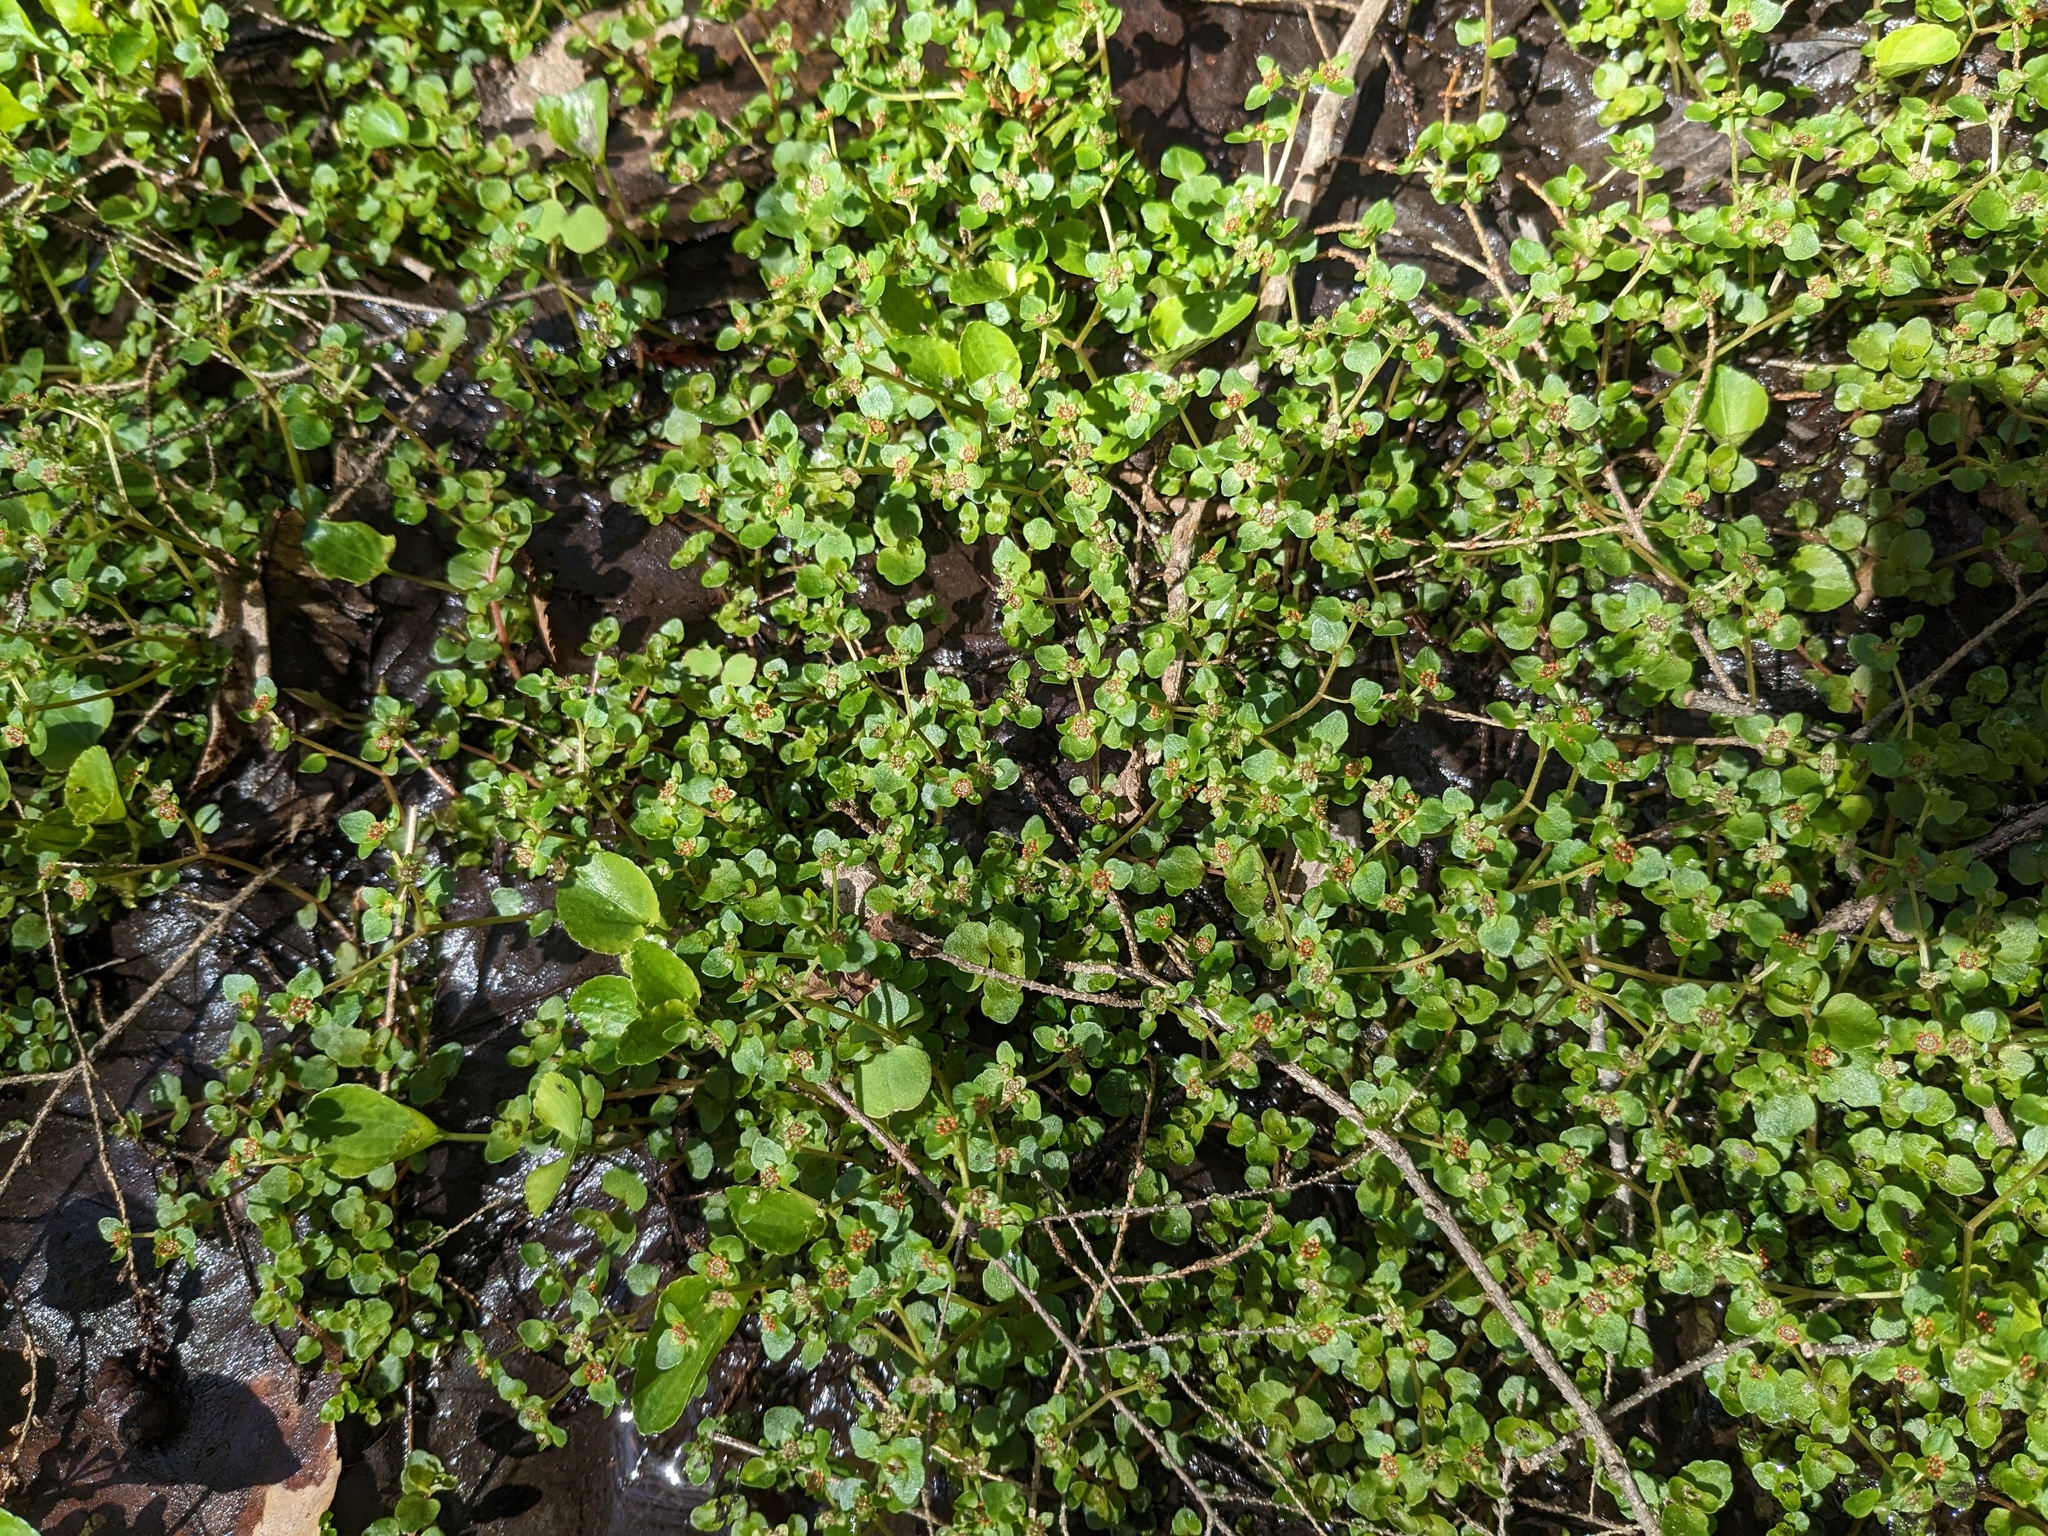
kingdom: Plantae
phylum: Tracheophyta
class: Magnoliopsida
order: Saxifragales
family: Saxifragaceae
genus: Chrysosplenium
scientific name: Chrysosplenium americanum
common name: American golden-saxifrage
